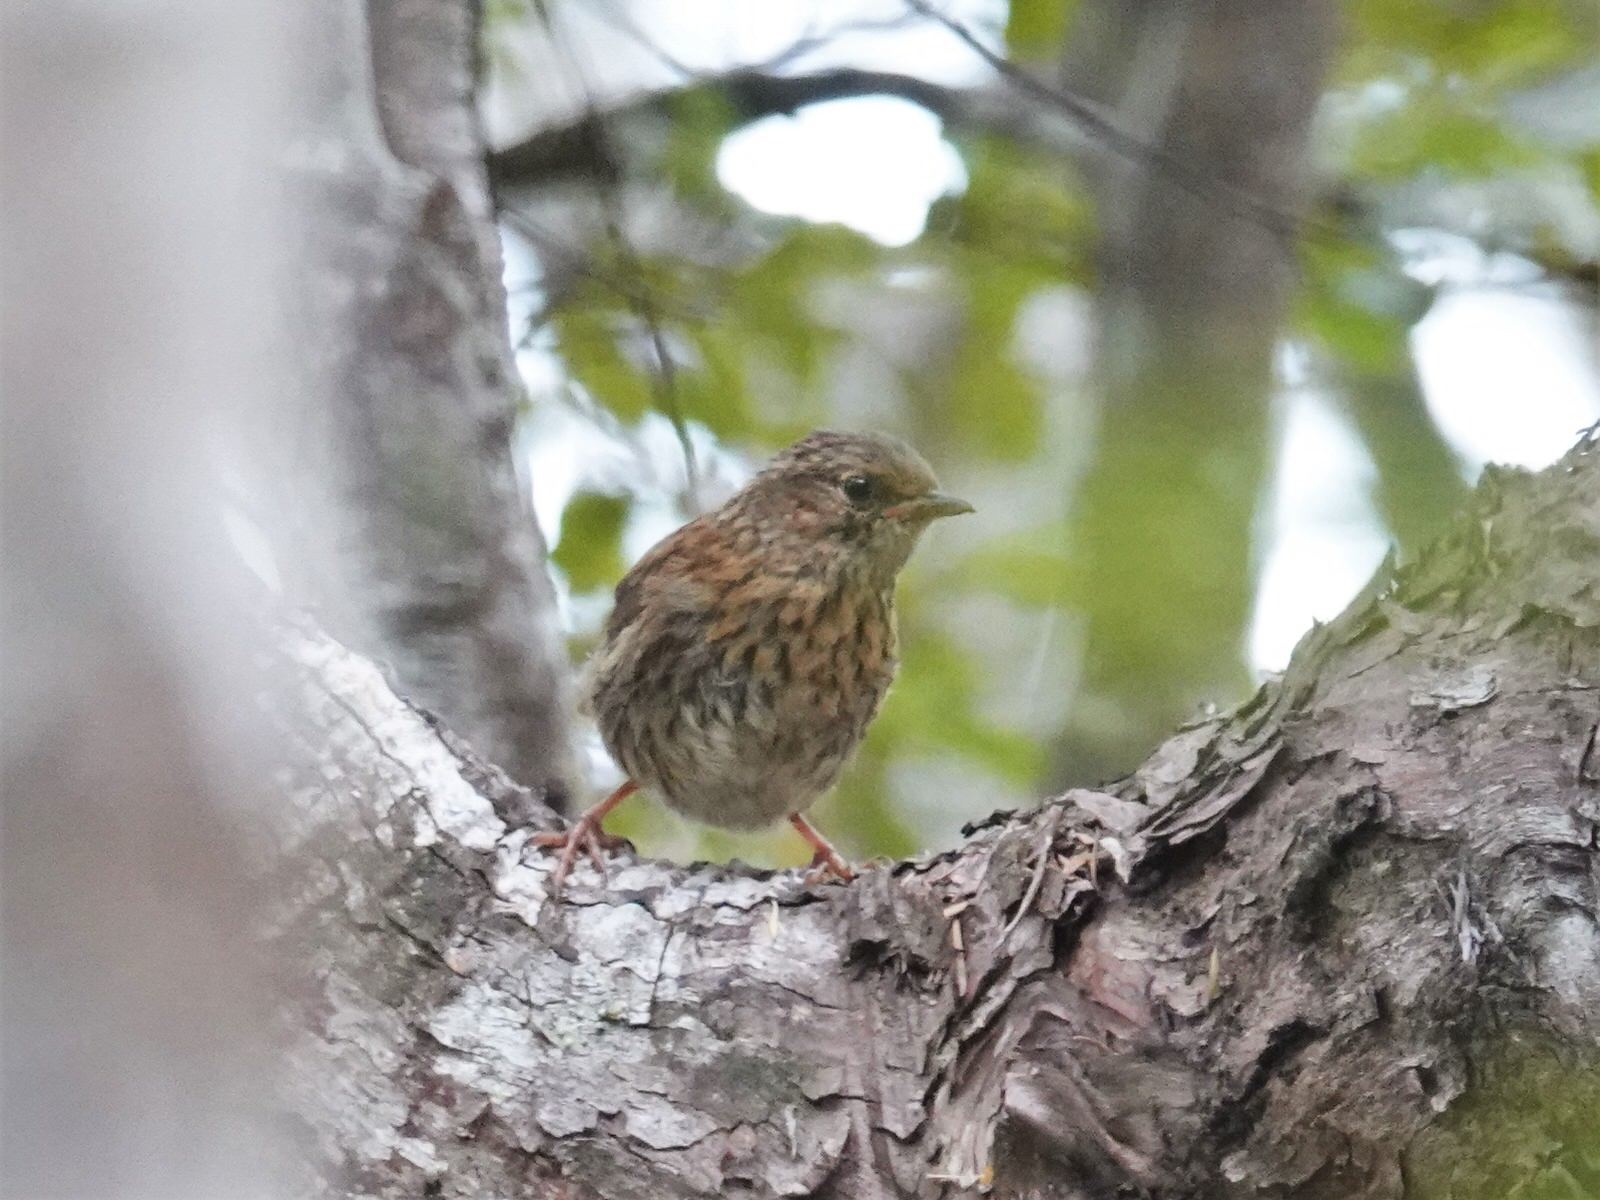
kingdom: Animalia
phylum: Chordata
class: Aves
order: Passeriformes
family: Prunellidae
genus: Prunella
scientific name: Prunella modularis
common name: Dunnock
